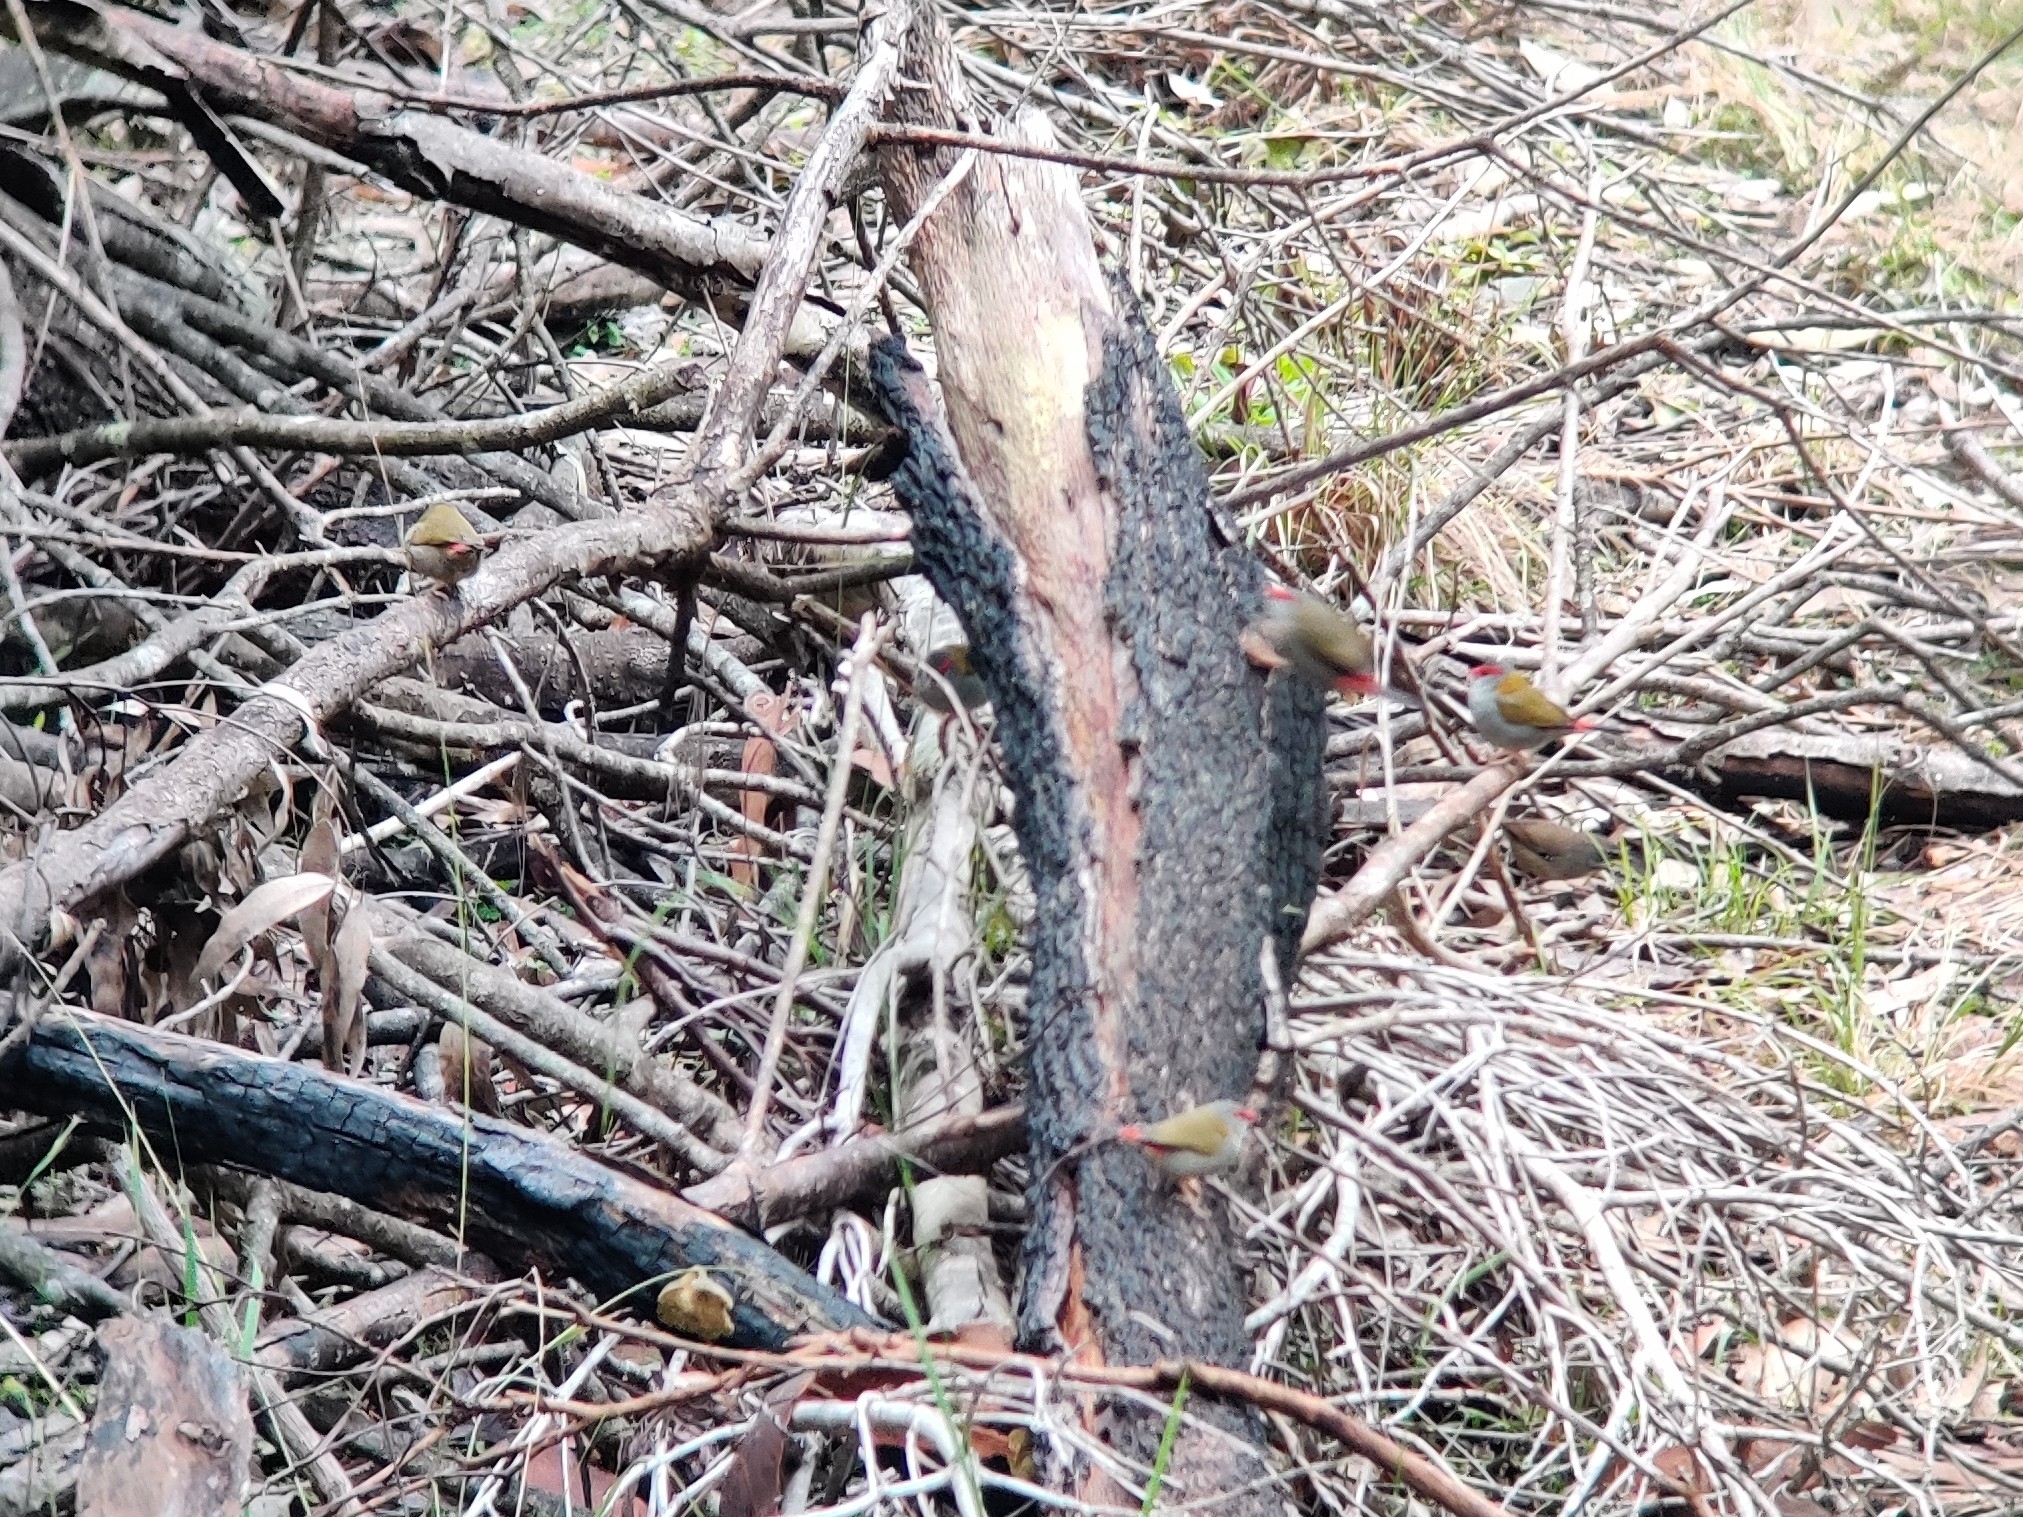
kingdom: Animalia
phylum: Chordata
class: Aves
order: Passeriformes
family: Estrildidae
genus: Neochmia
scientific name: Neochmia temporalis
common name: Red-browed finch
